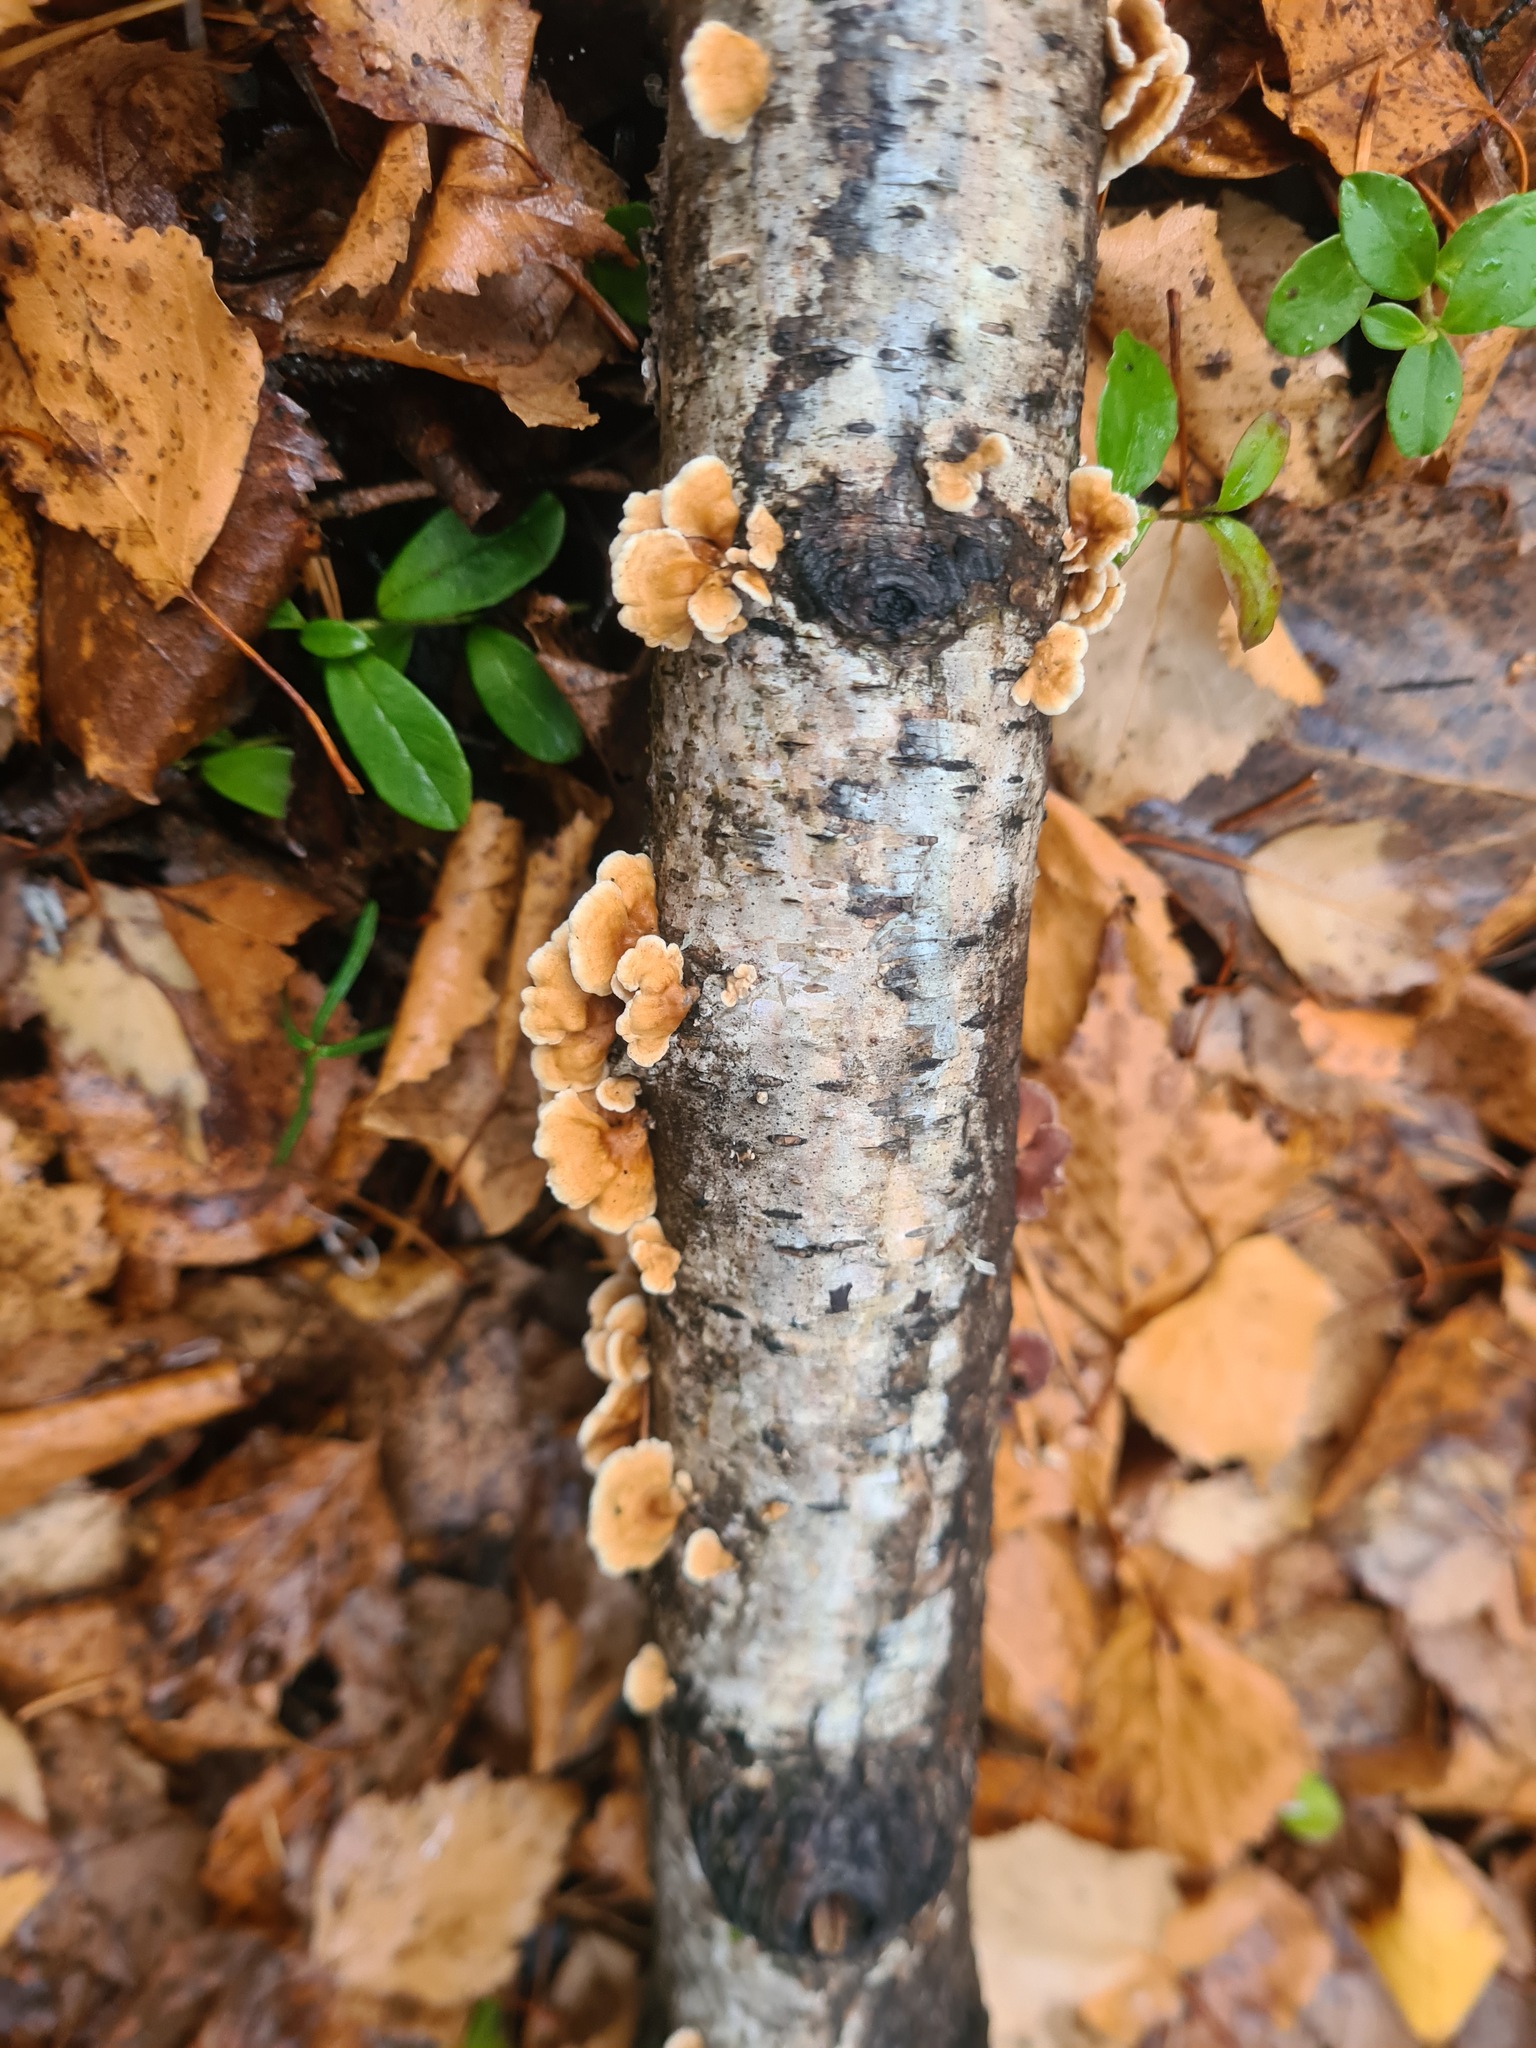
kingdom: Fungi
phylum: Basidiomycota
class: Agaricomycetes
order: Amylocorticiales
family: Amylocorticiaceae
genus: Plicaturopsis
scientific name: Plicaturopsis crispa
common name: Crimped gill
